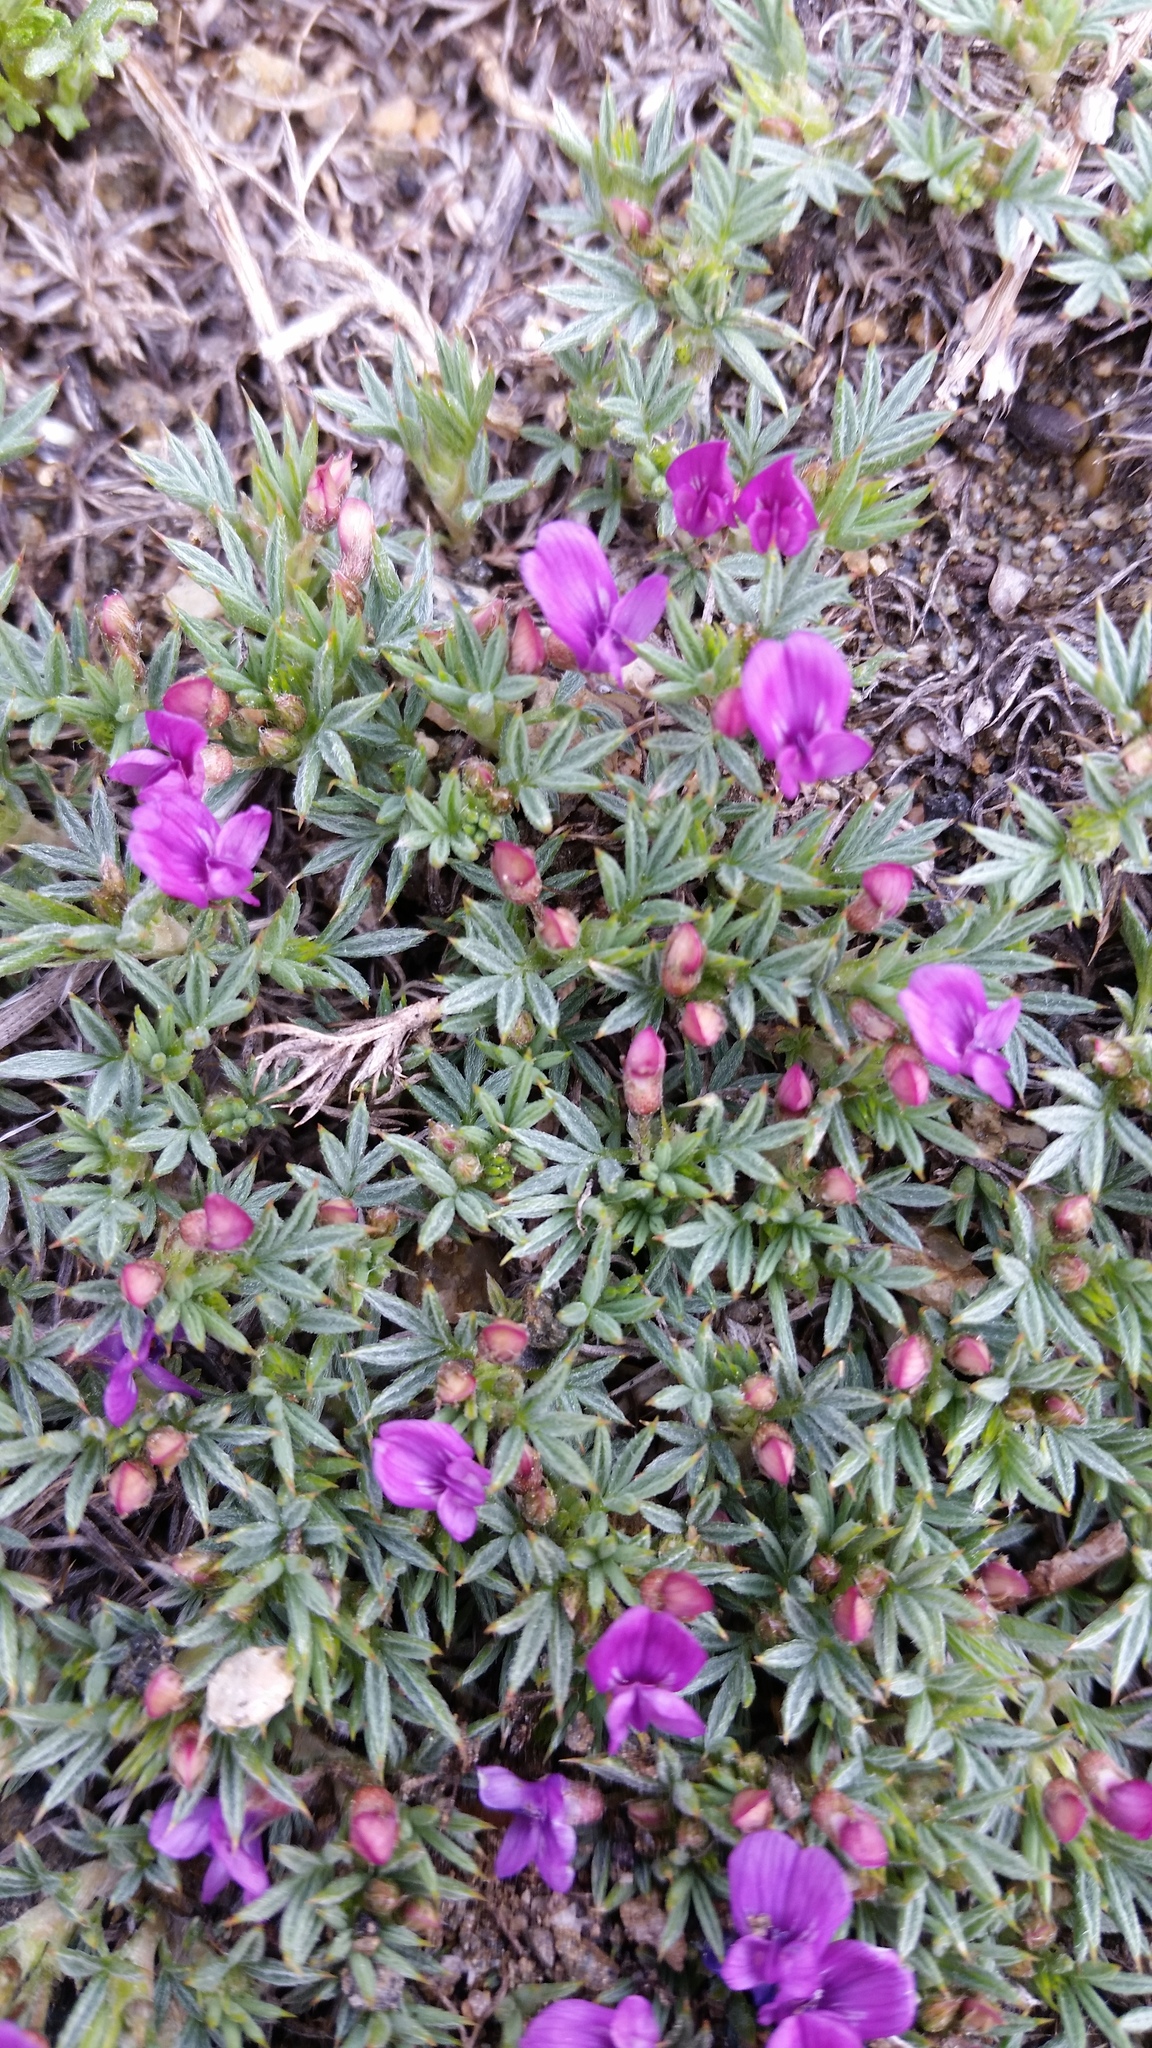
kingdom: Plantae
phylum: Tracheophyta
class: Magnoliopsida
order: Fabales
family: Fabaceae
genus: Astragalus
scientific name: Astragalus kentrophyta
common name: Prickly milk-vetch
